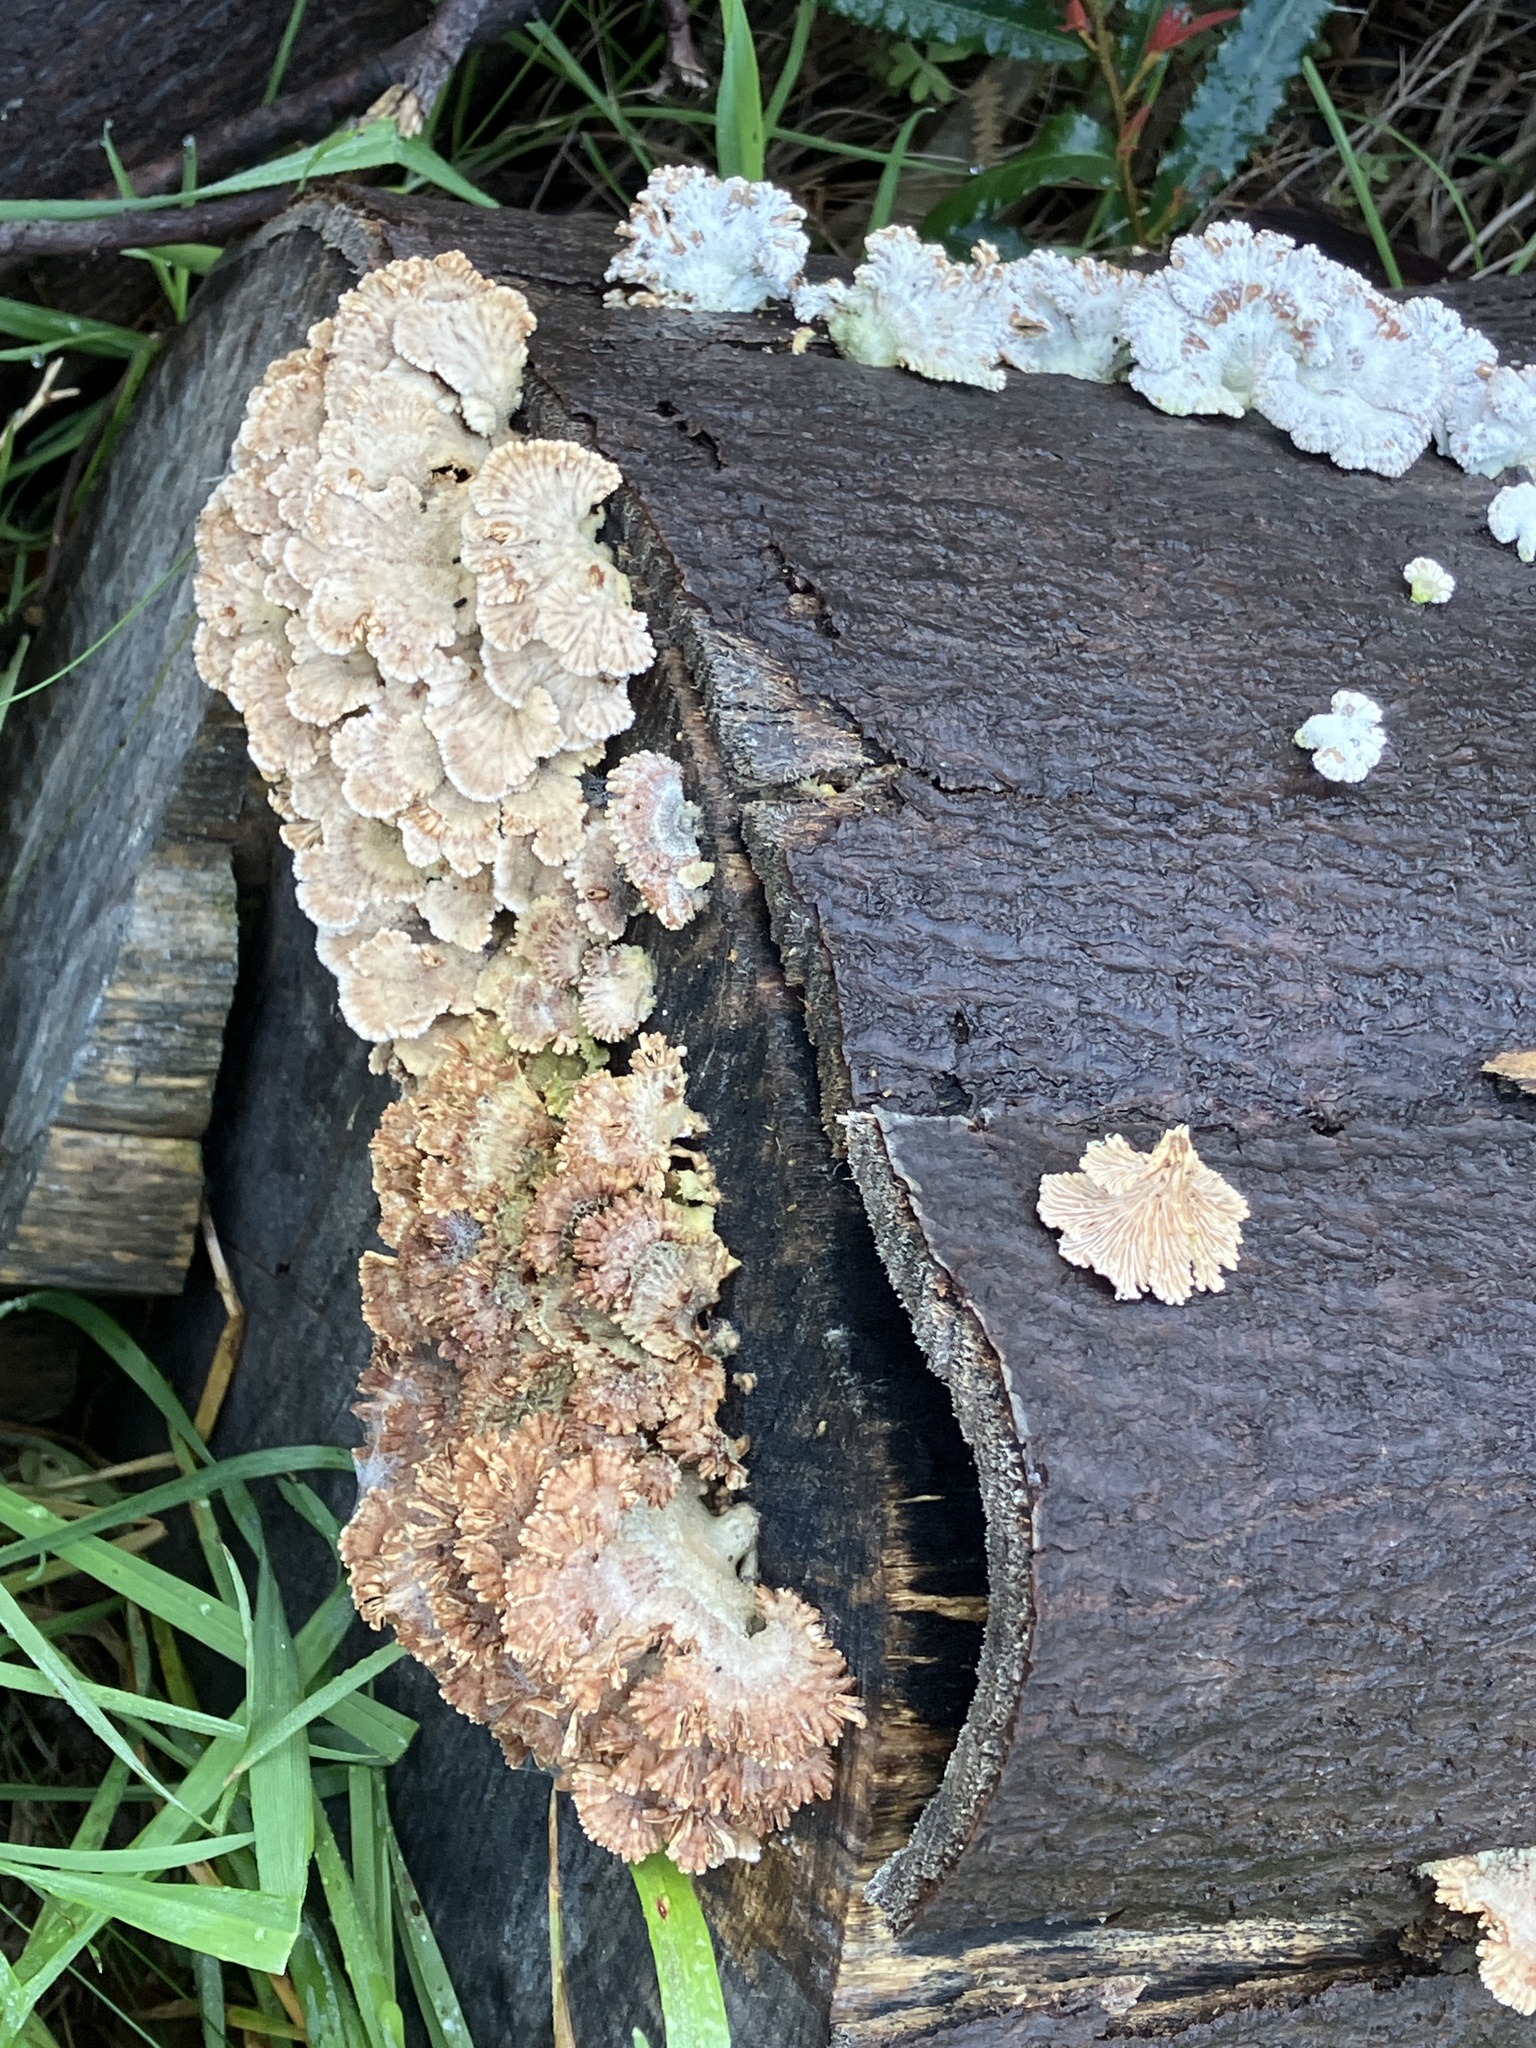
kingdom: Fungi
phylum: Basidiomycota
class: Agaricomycetes
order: Agaricales
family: Schizophyllaceae
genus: Schizophyllum
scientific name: Schizophyllum commune
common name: Common porecrust
